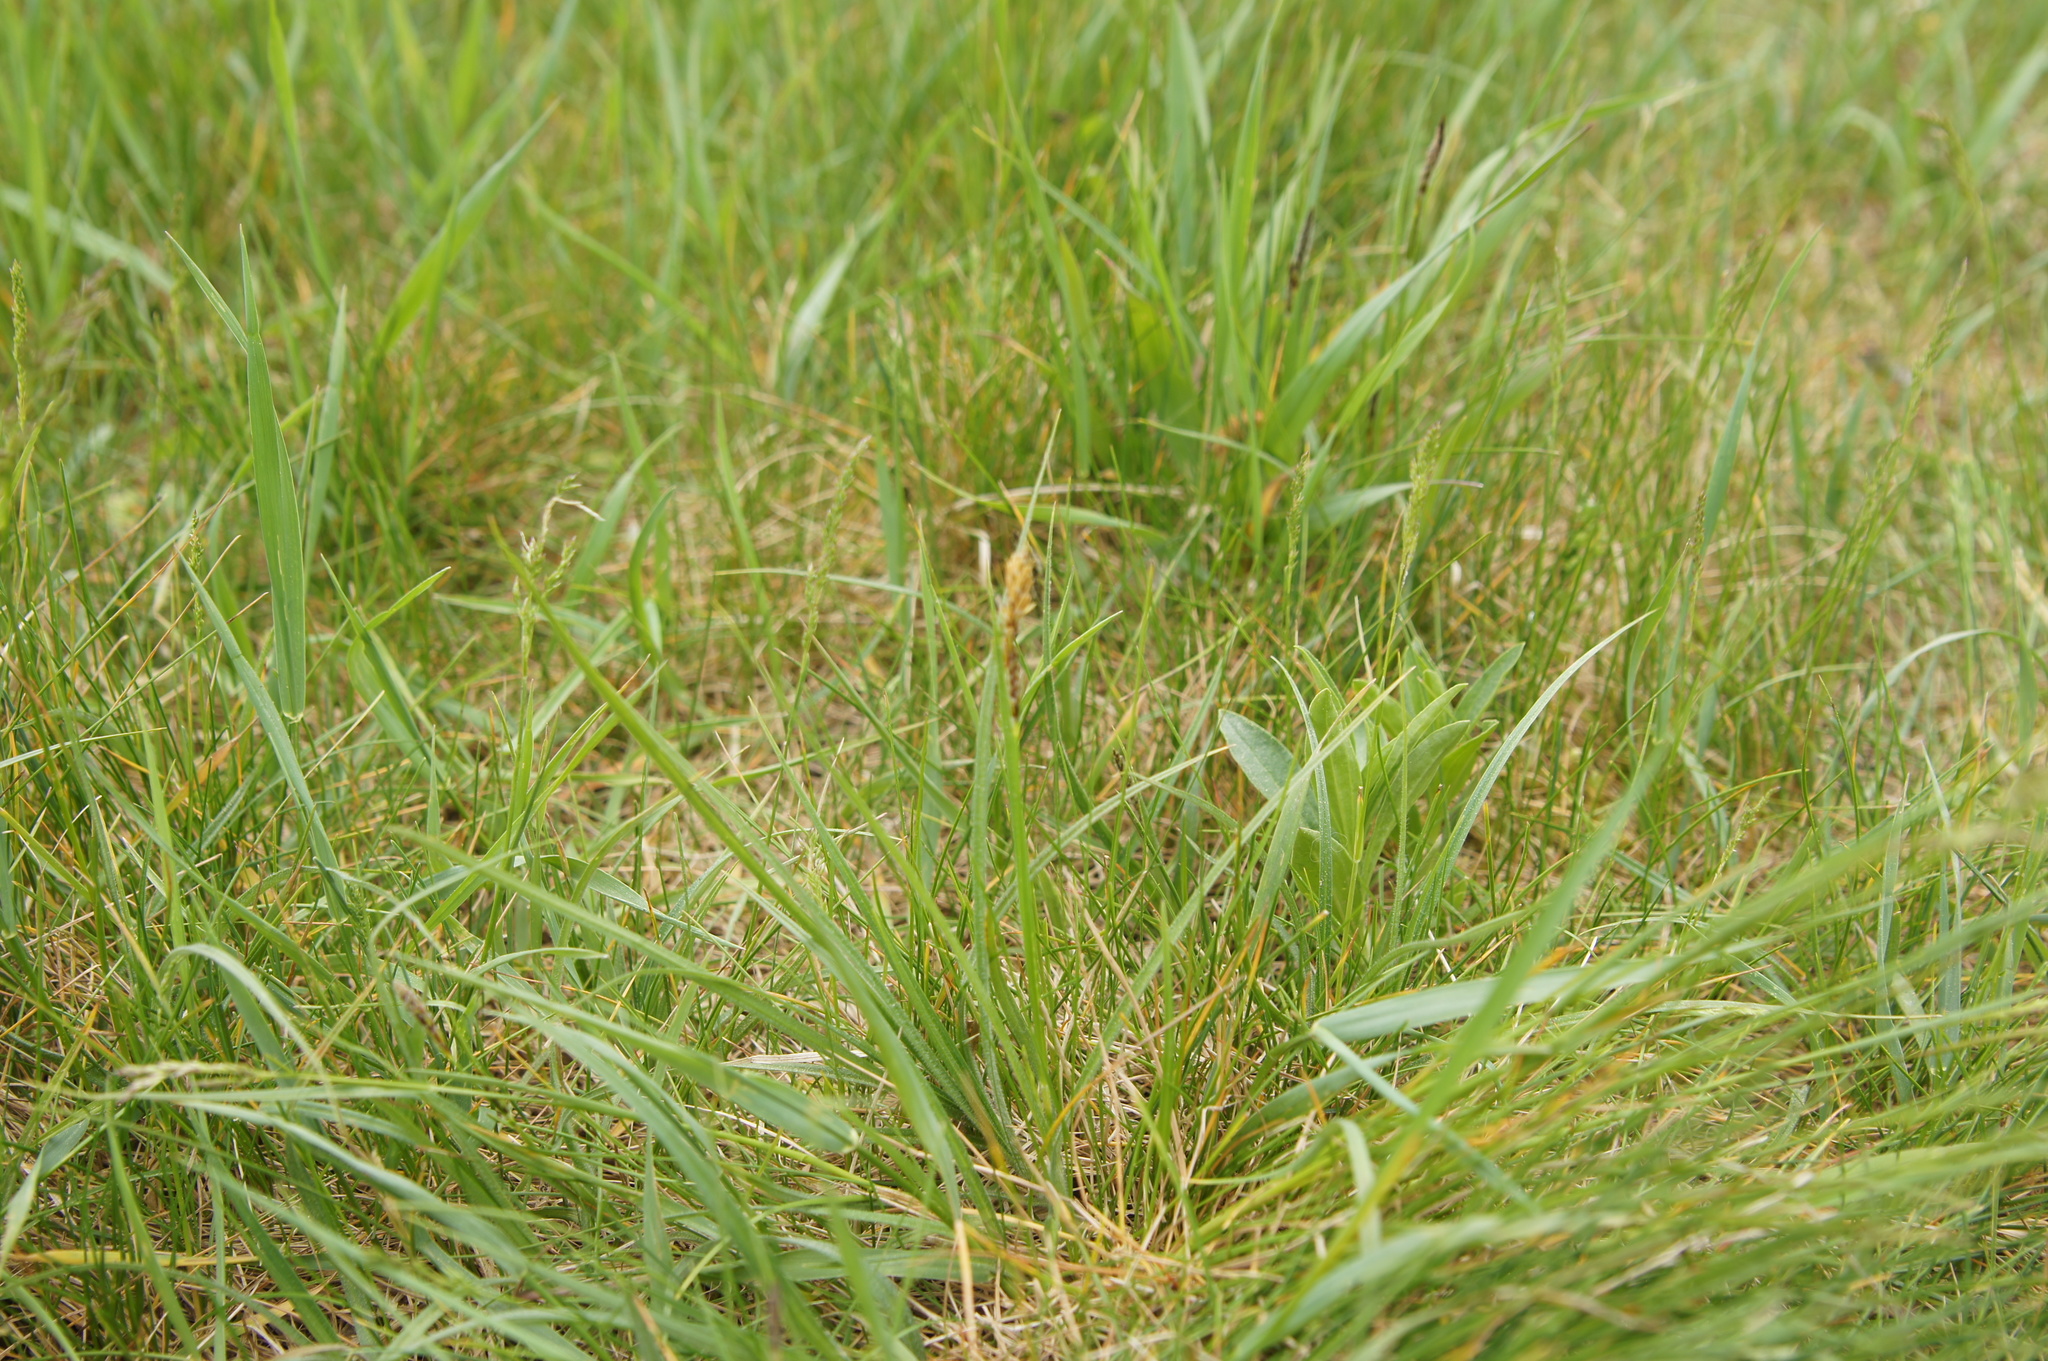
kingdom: Plantae
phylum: Tracheophyta
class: Liliopsida
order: Poales
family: Cyperaceae
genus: Carex
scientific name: Carex hirta
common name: Hairy sedge
